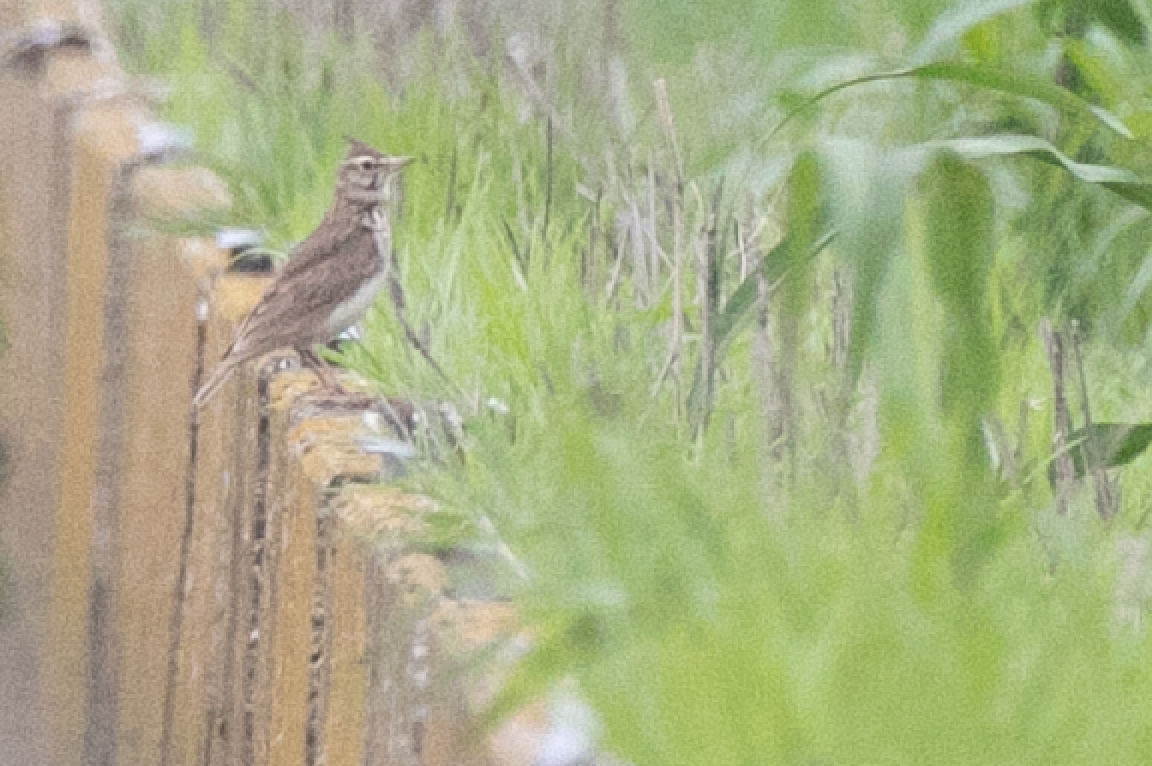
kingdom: Animalia
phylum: Chordata
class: Aves
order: Passeriformes
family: Alaudidae
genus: Galerida
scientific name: Galerida cristata
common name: Crested lark
